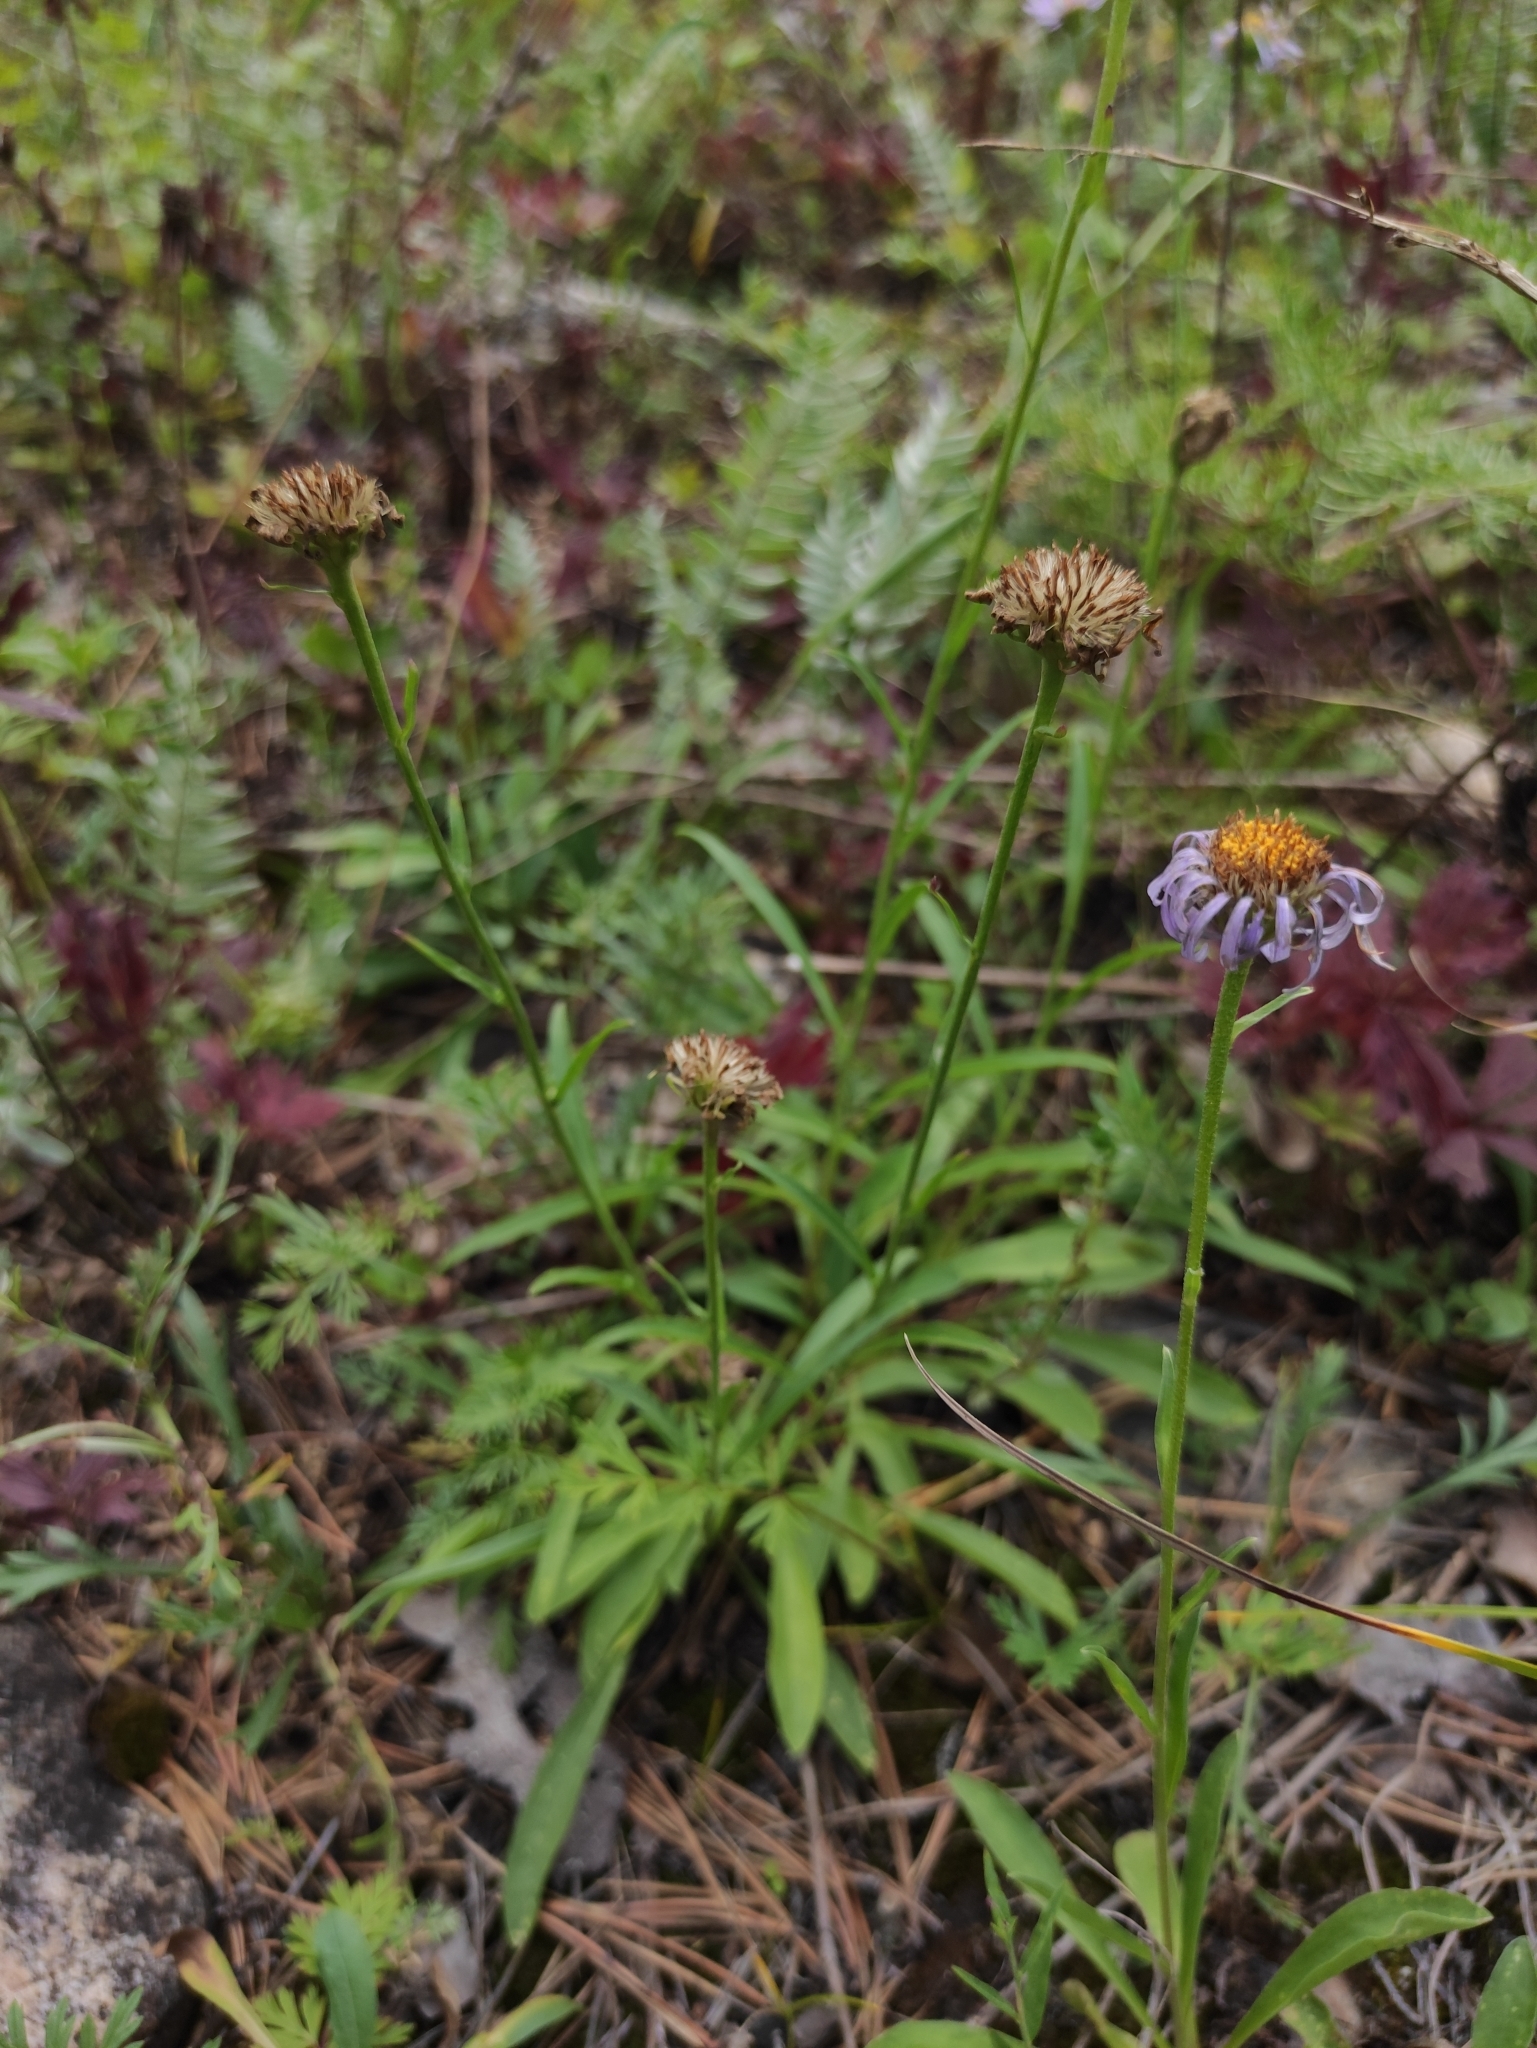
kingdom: Plantae
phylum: Tracheophyta
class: Magnoliopsida
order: Asterales
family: Asteraceae
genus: Aster
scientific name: Aster alpinus
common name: Alpine aster
